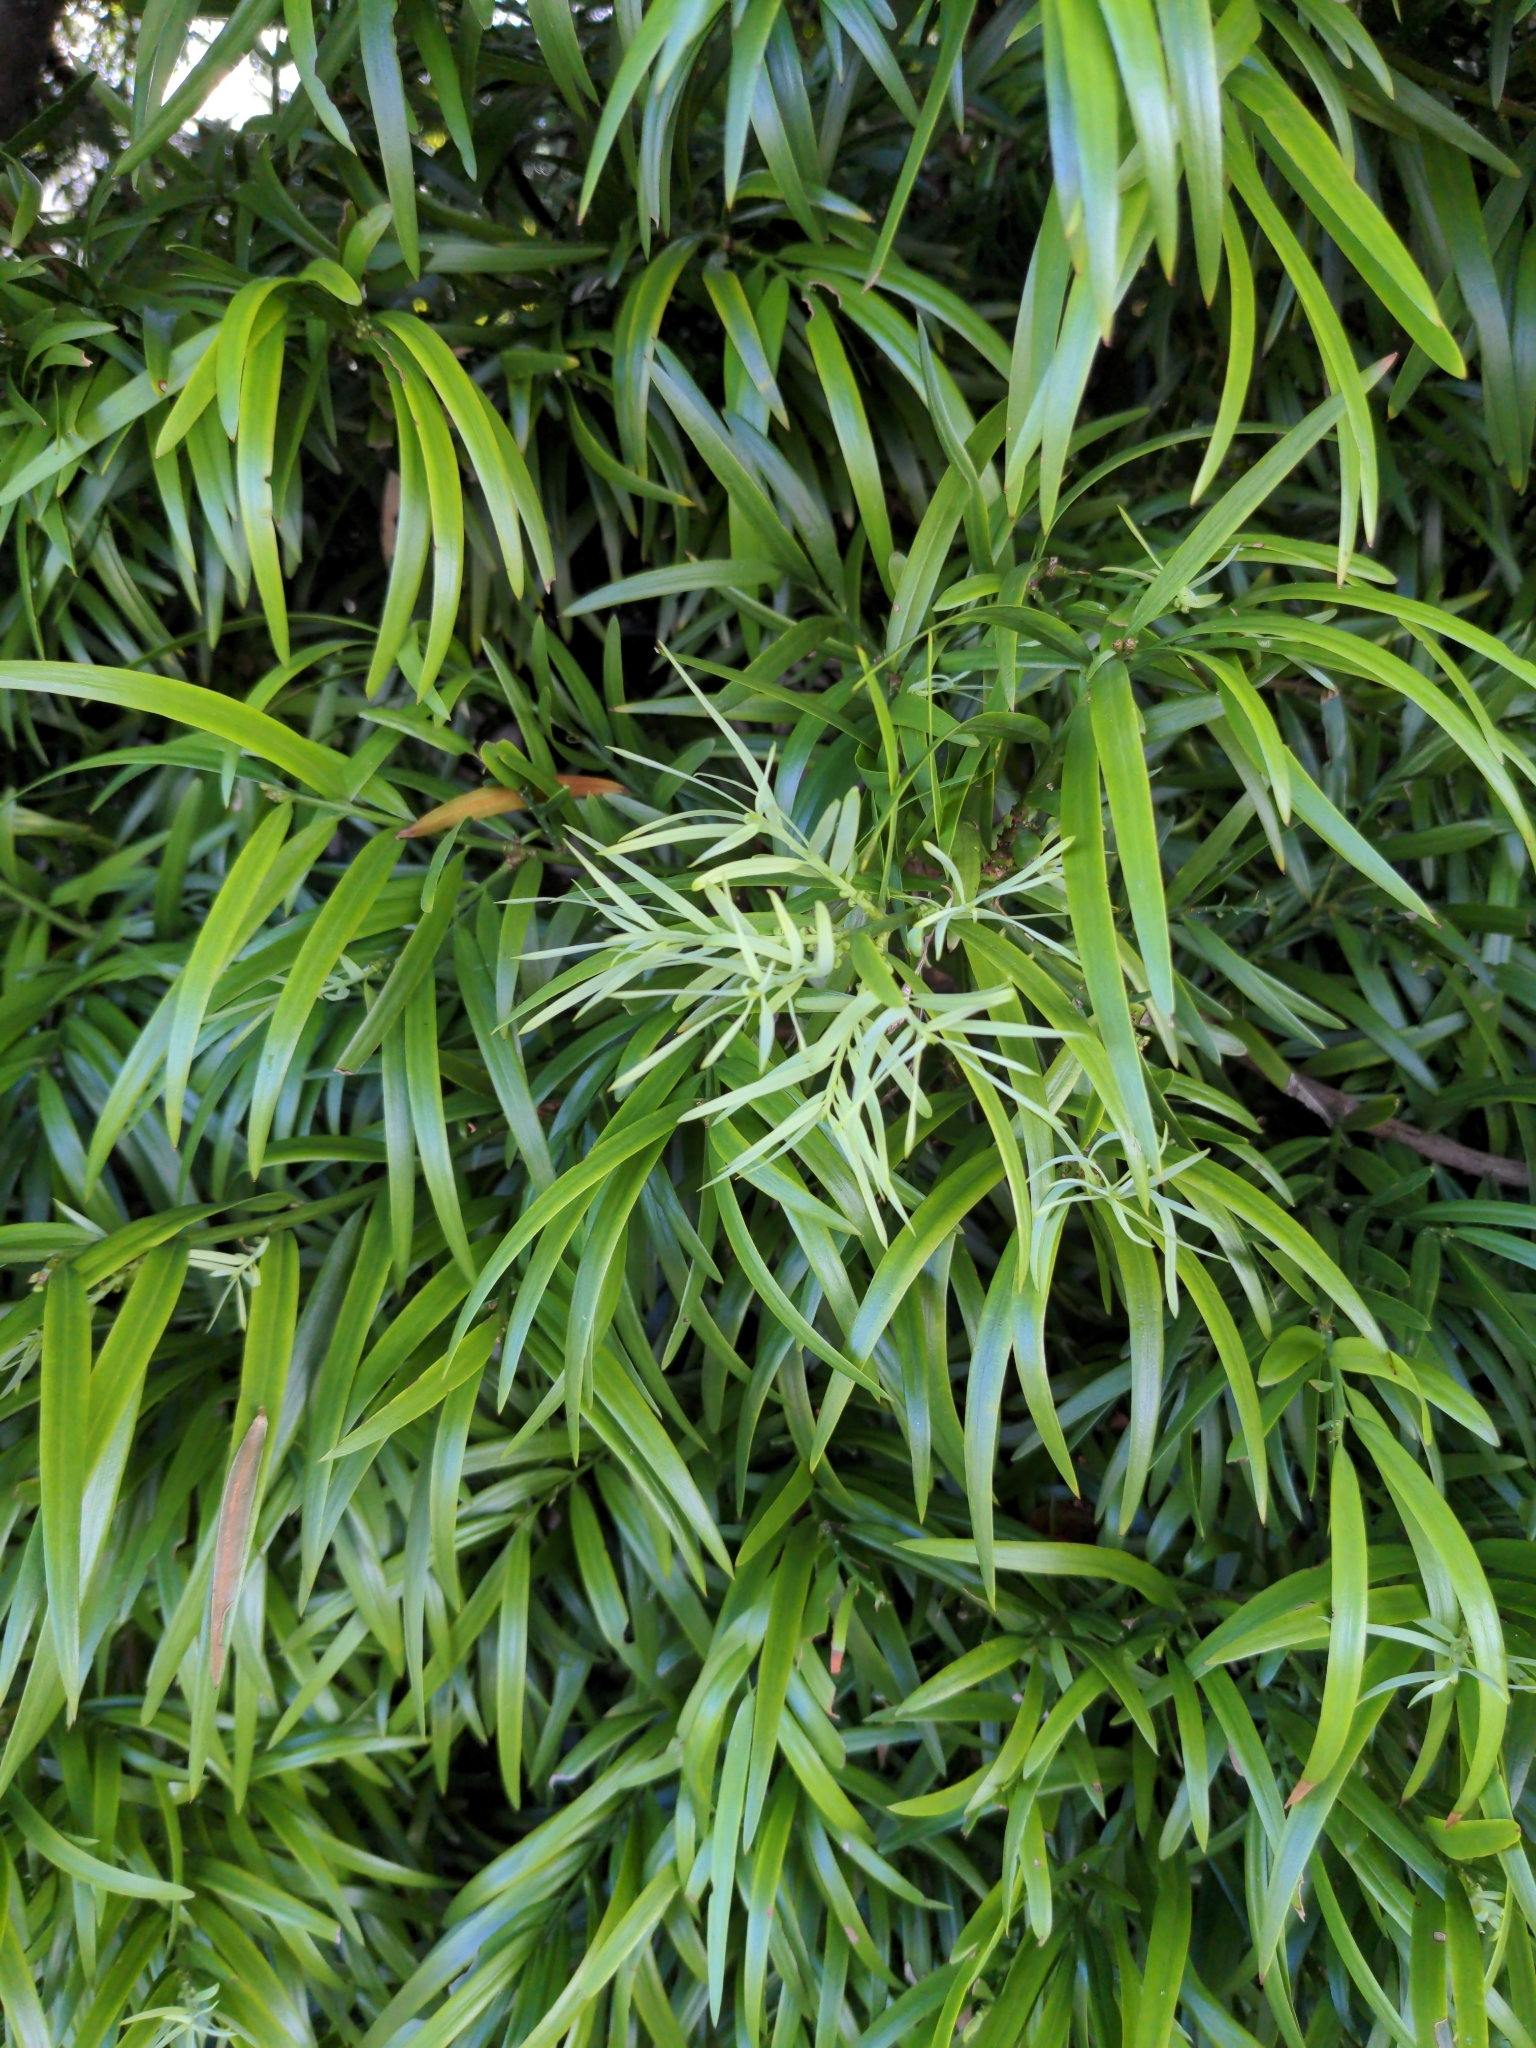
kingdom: Plantae
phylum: Tracheophyta
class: Pinopsida
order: Pinales
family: Podocarpaceae
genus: Podocarpus
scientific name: Podocarpus henkelii
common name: Henkel's yellowwood
